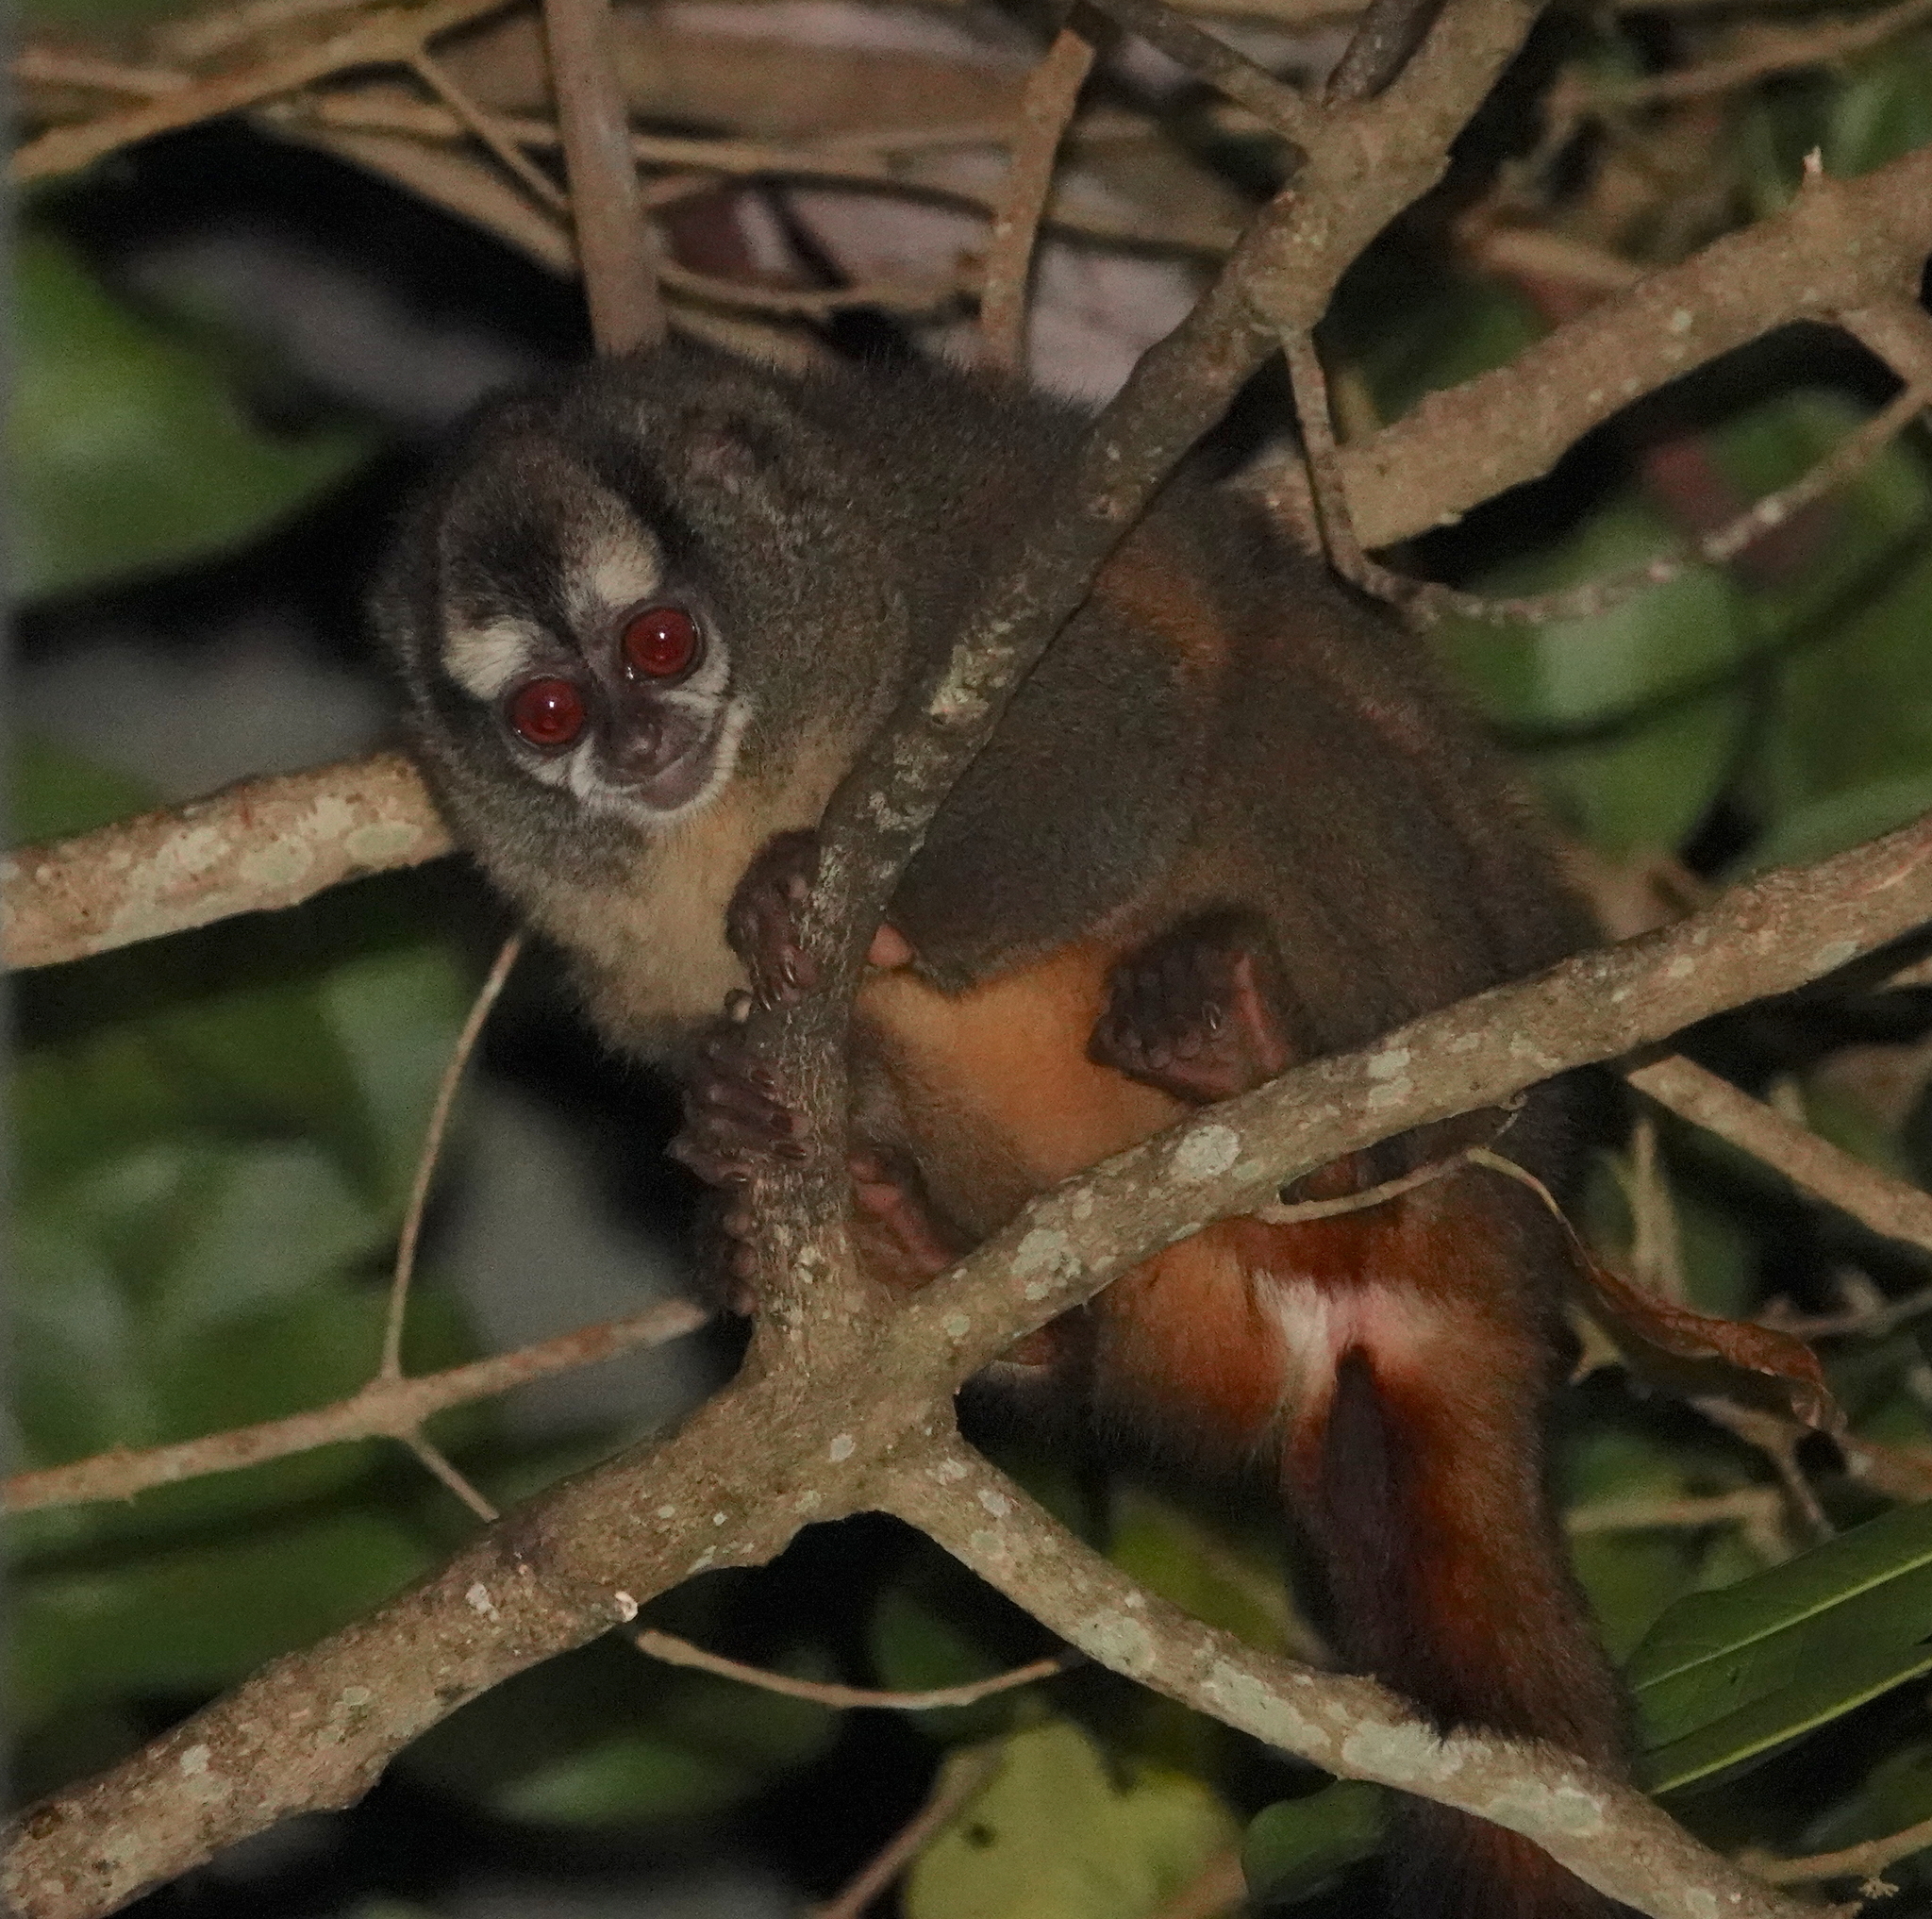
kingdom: Animalia
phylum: Chordata
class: Mammalia
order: Primates
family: Aotidae
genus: Aotus
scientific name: Aotus griseimembra
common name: Douroucouli a bras gris
